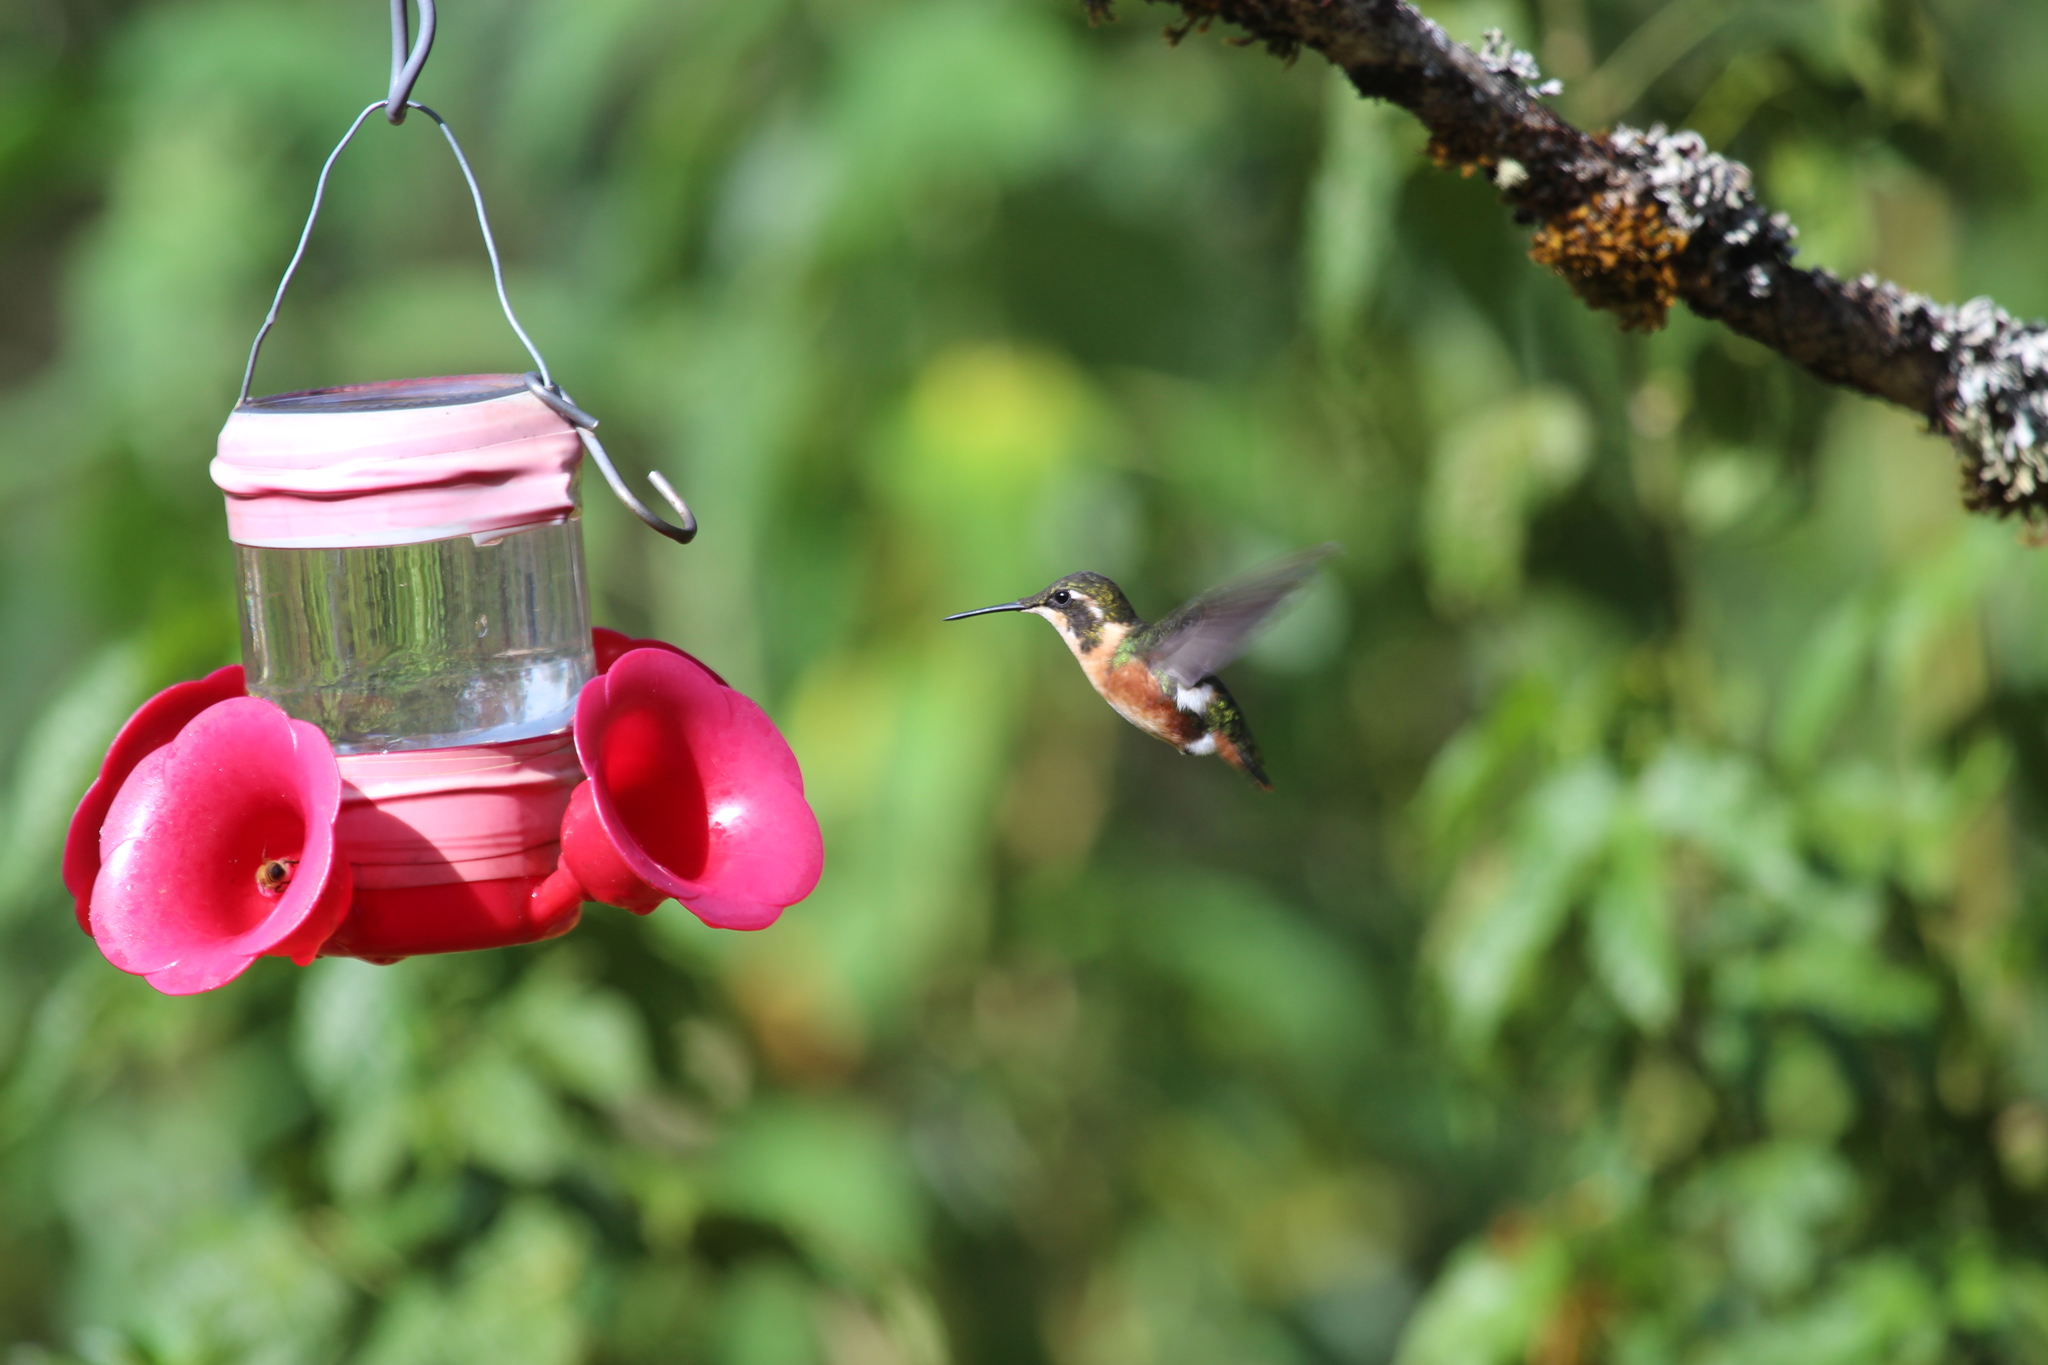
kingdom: Animalia
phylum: Chordata
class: Aves
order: Apodiformes
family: Trochilidae
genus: Chaetocercus
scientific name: Chaetocercus mulsant
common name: White-bellied woodstar
